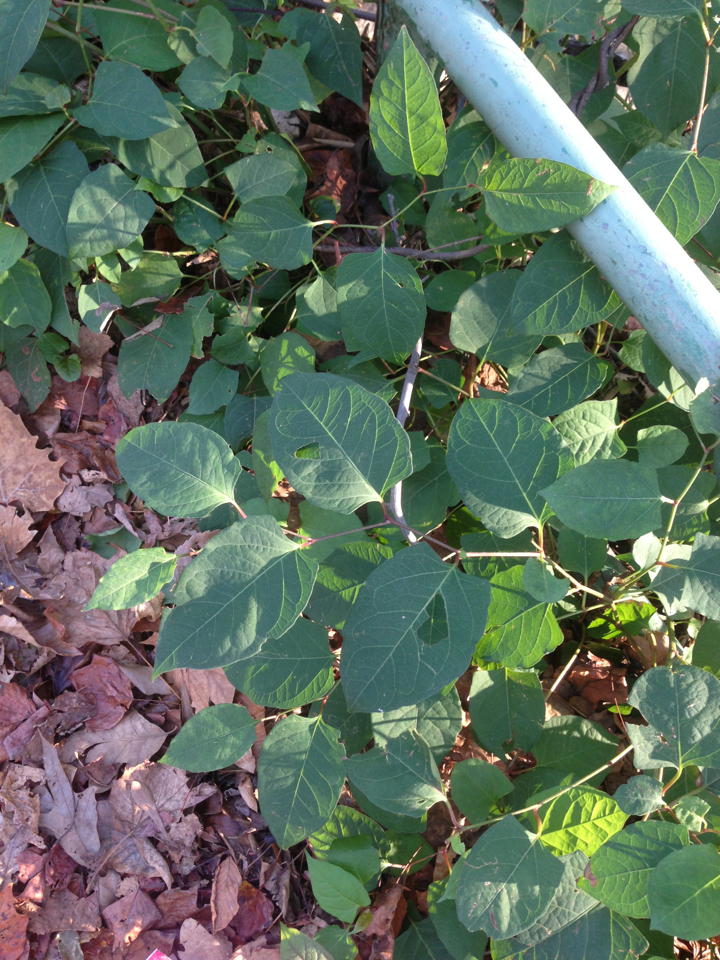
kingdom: Plantae
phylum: Tracheophyta
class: Magnoliopsida
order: Caryophyllales
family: Polygonaceae
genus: Reynoutria
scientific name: Reynoutria japonica
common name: Japanese knotweed
